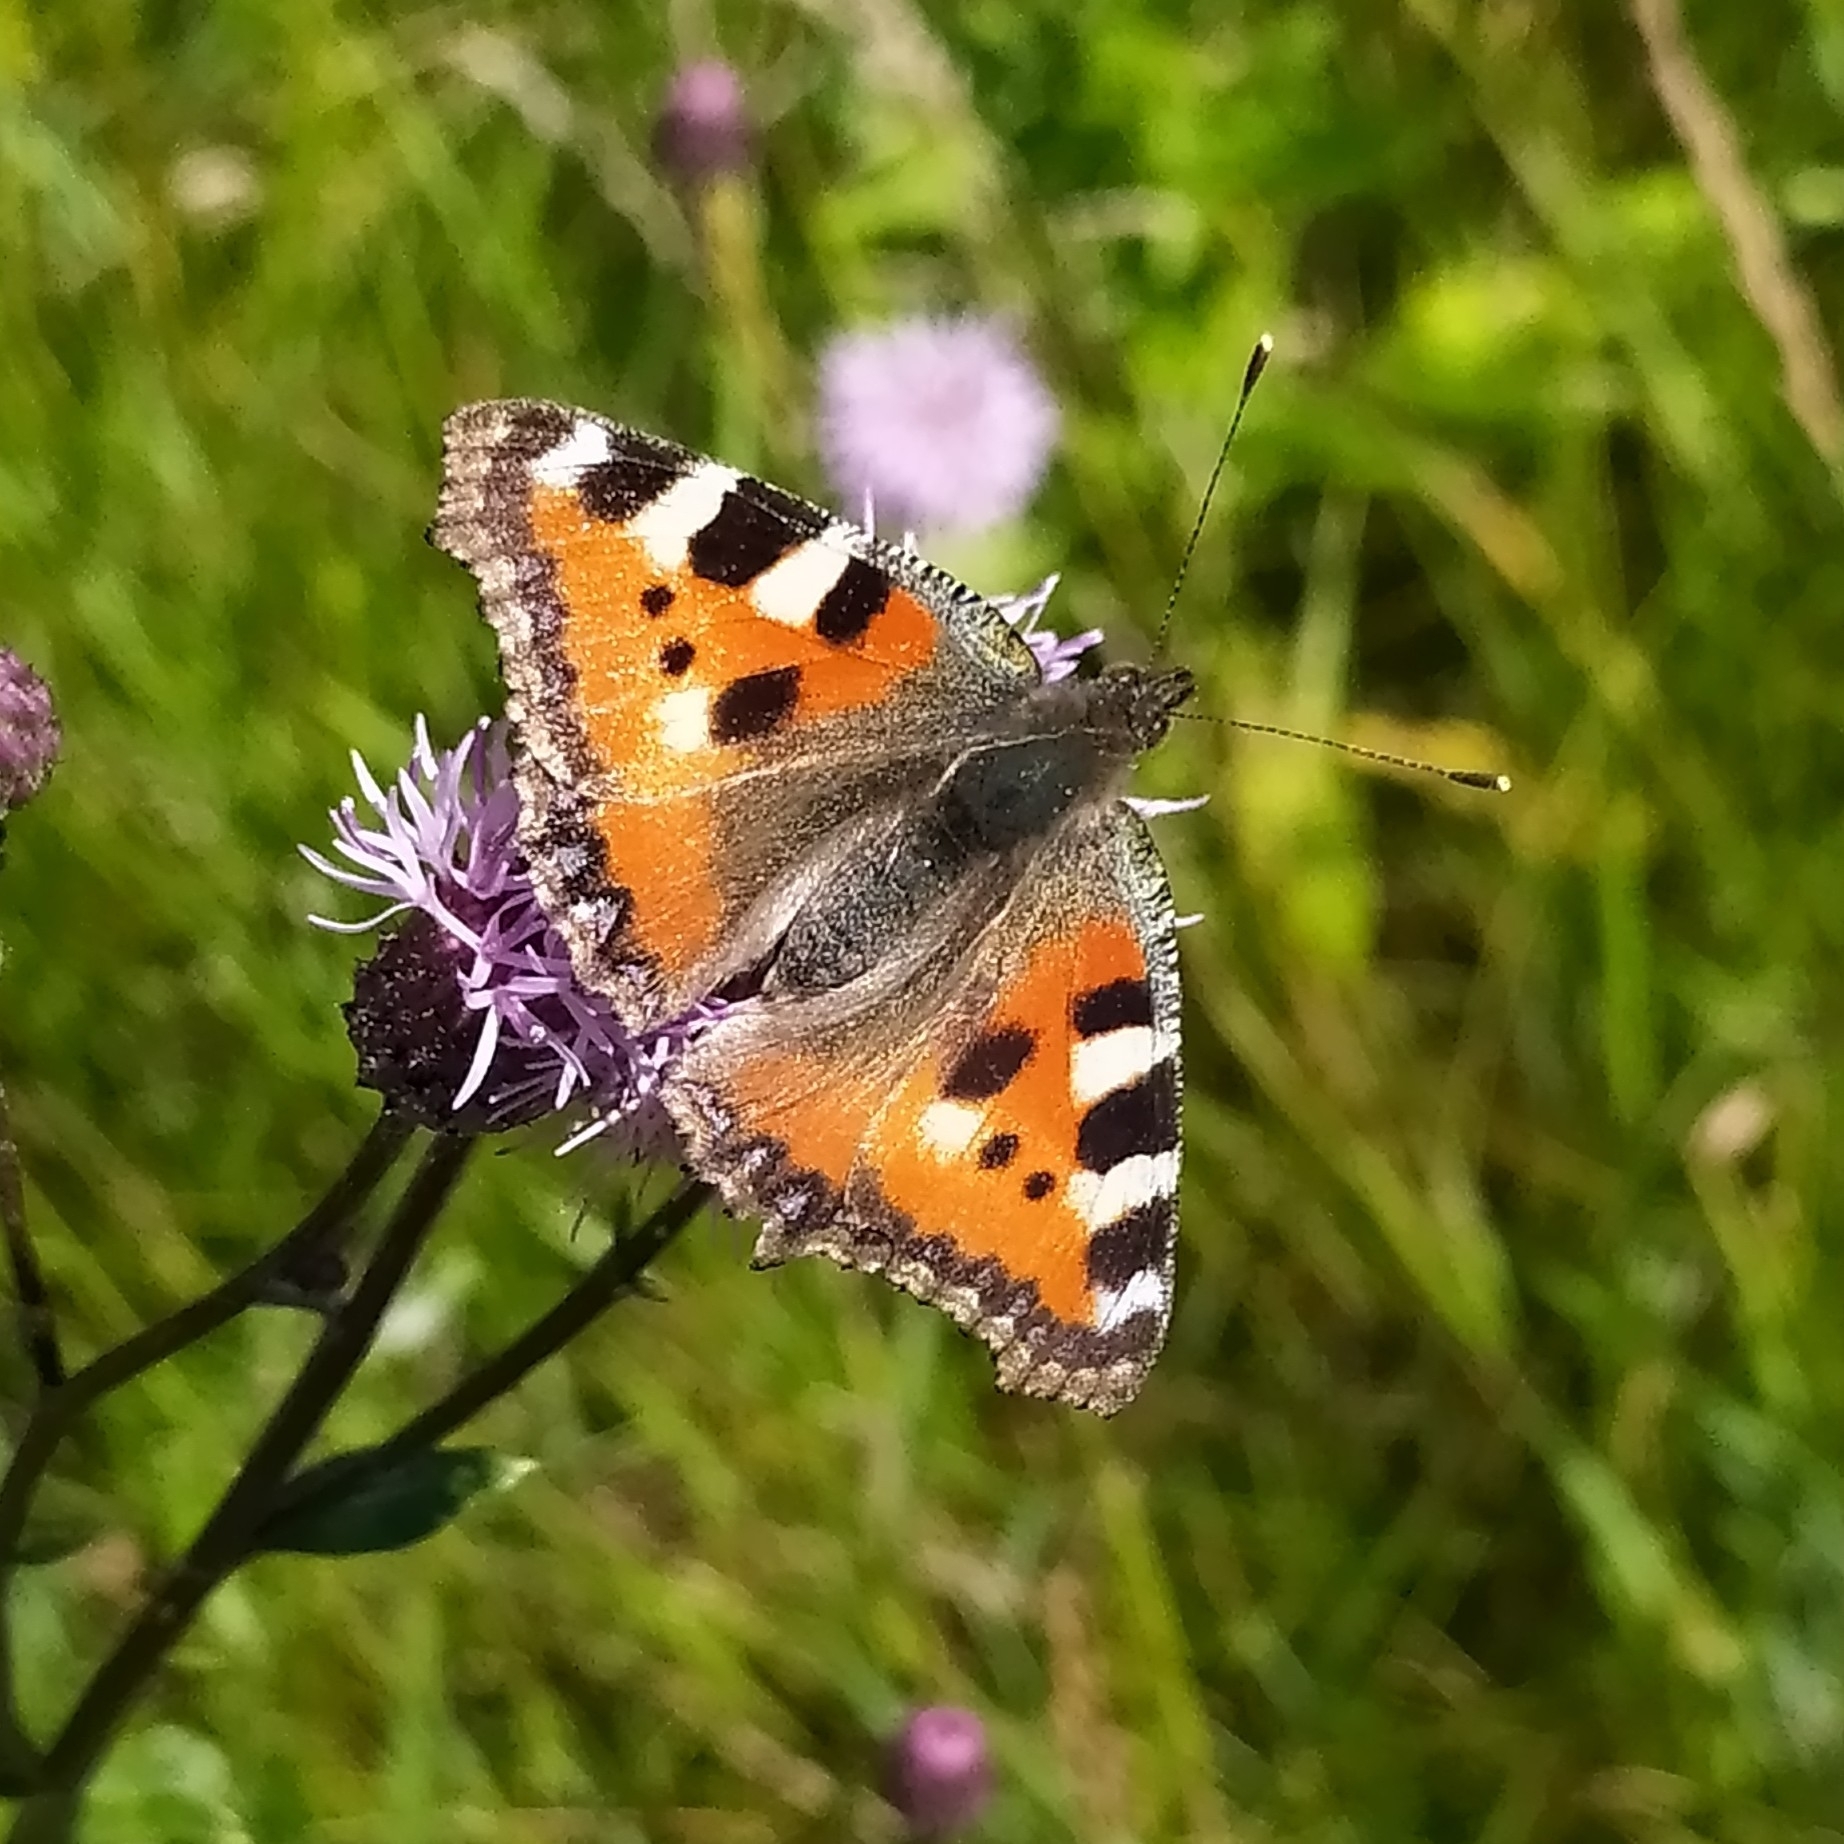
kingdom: Animalia
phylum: Arthropoda
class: Insecta
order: Lepidoptera
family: Nymphalidae
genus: Aglais
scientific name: Aglais urticae
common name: Small tortoiseshell
